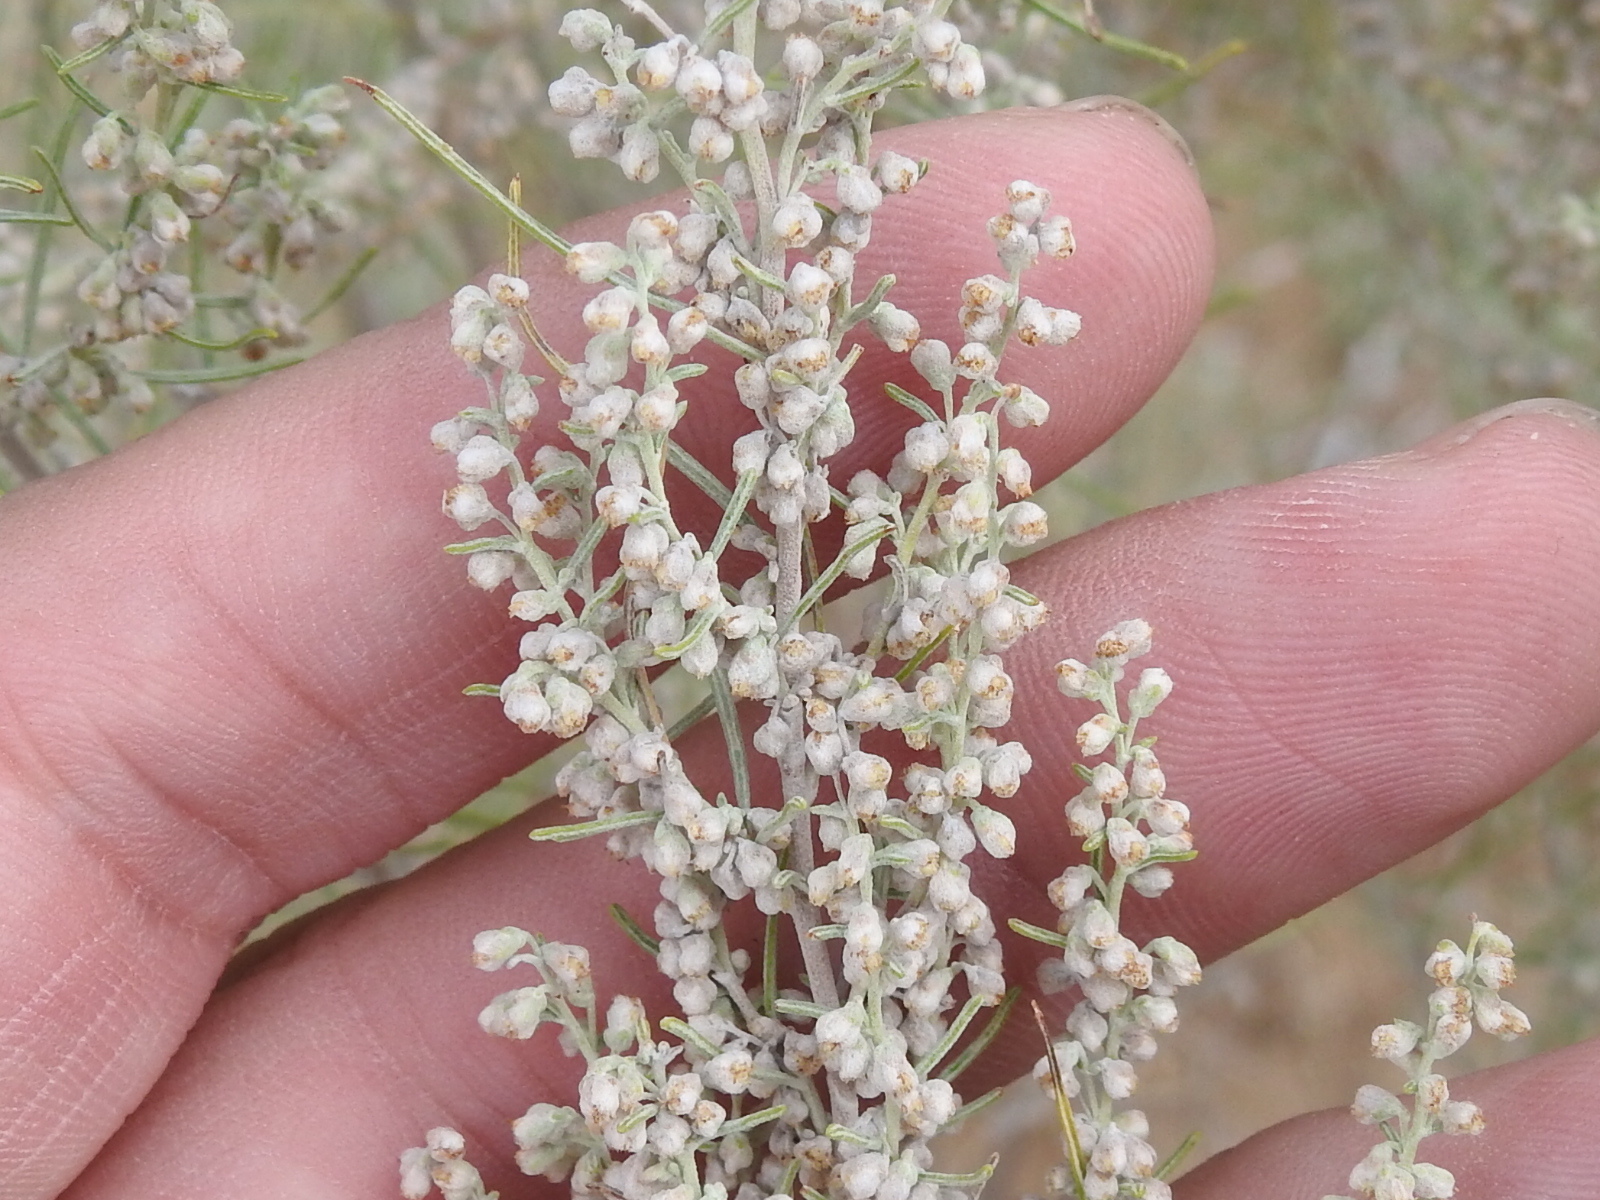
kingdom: Plantae
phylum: Tracheophyta
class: Magnoliopsida
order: Asterales
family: Asteraceae
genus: Artemisia
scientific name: Artemisia filifolia
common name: Sand-sage
